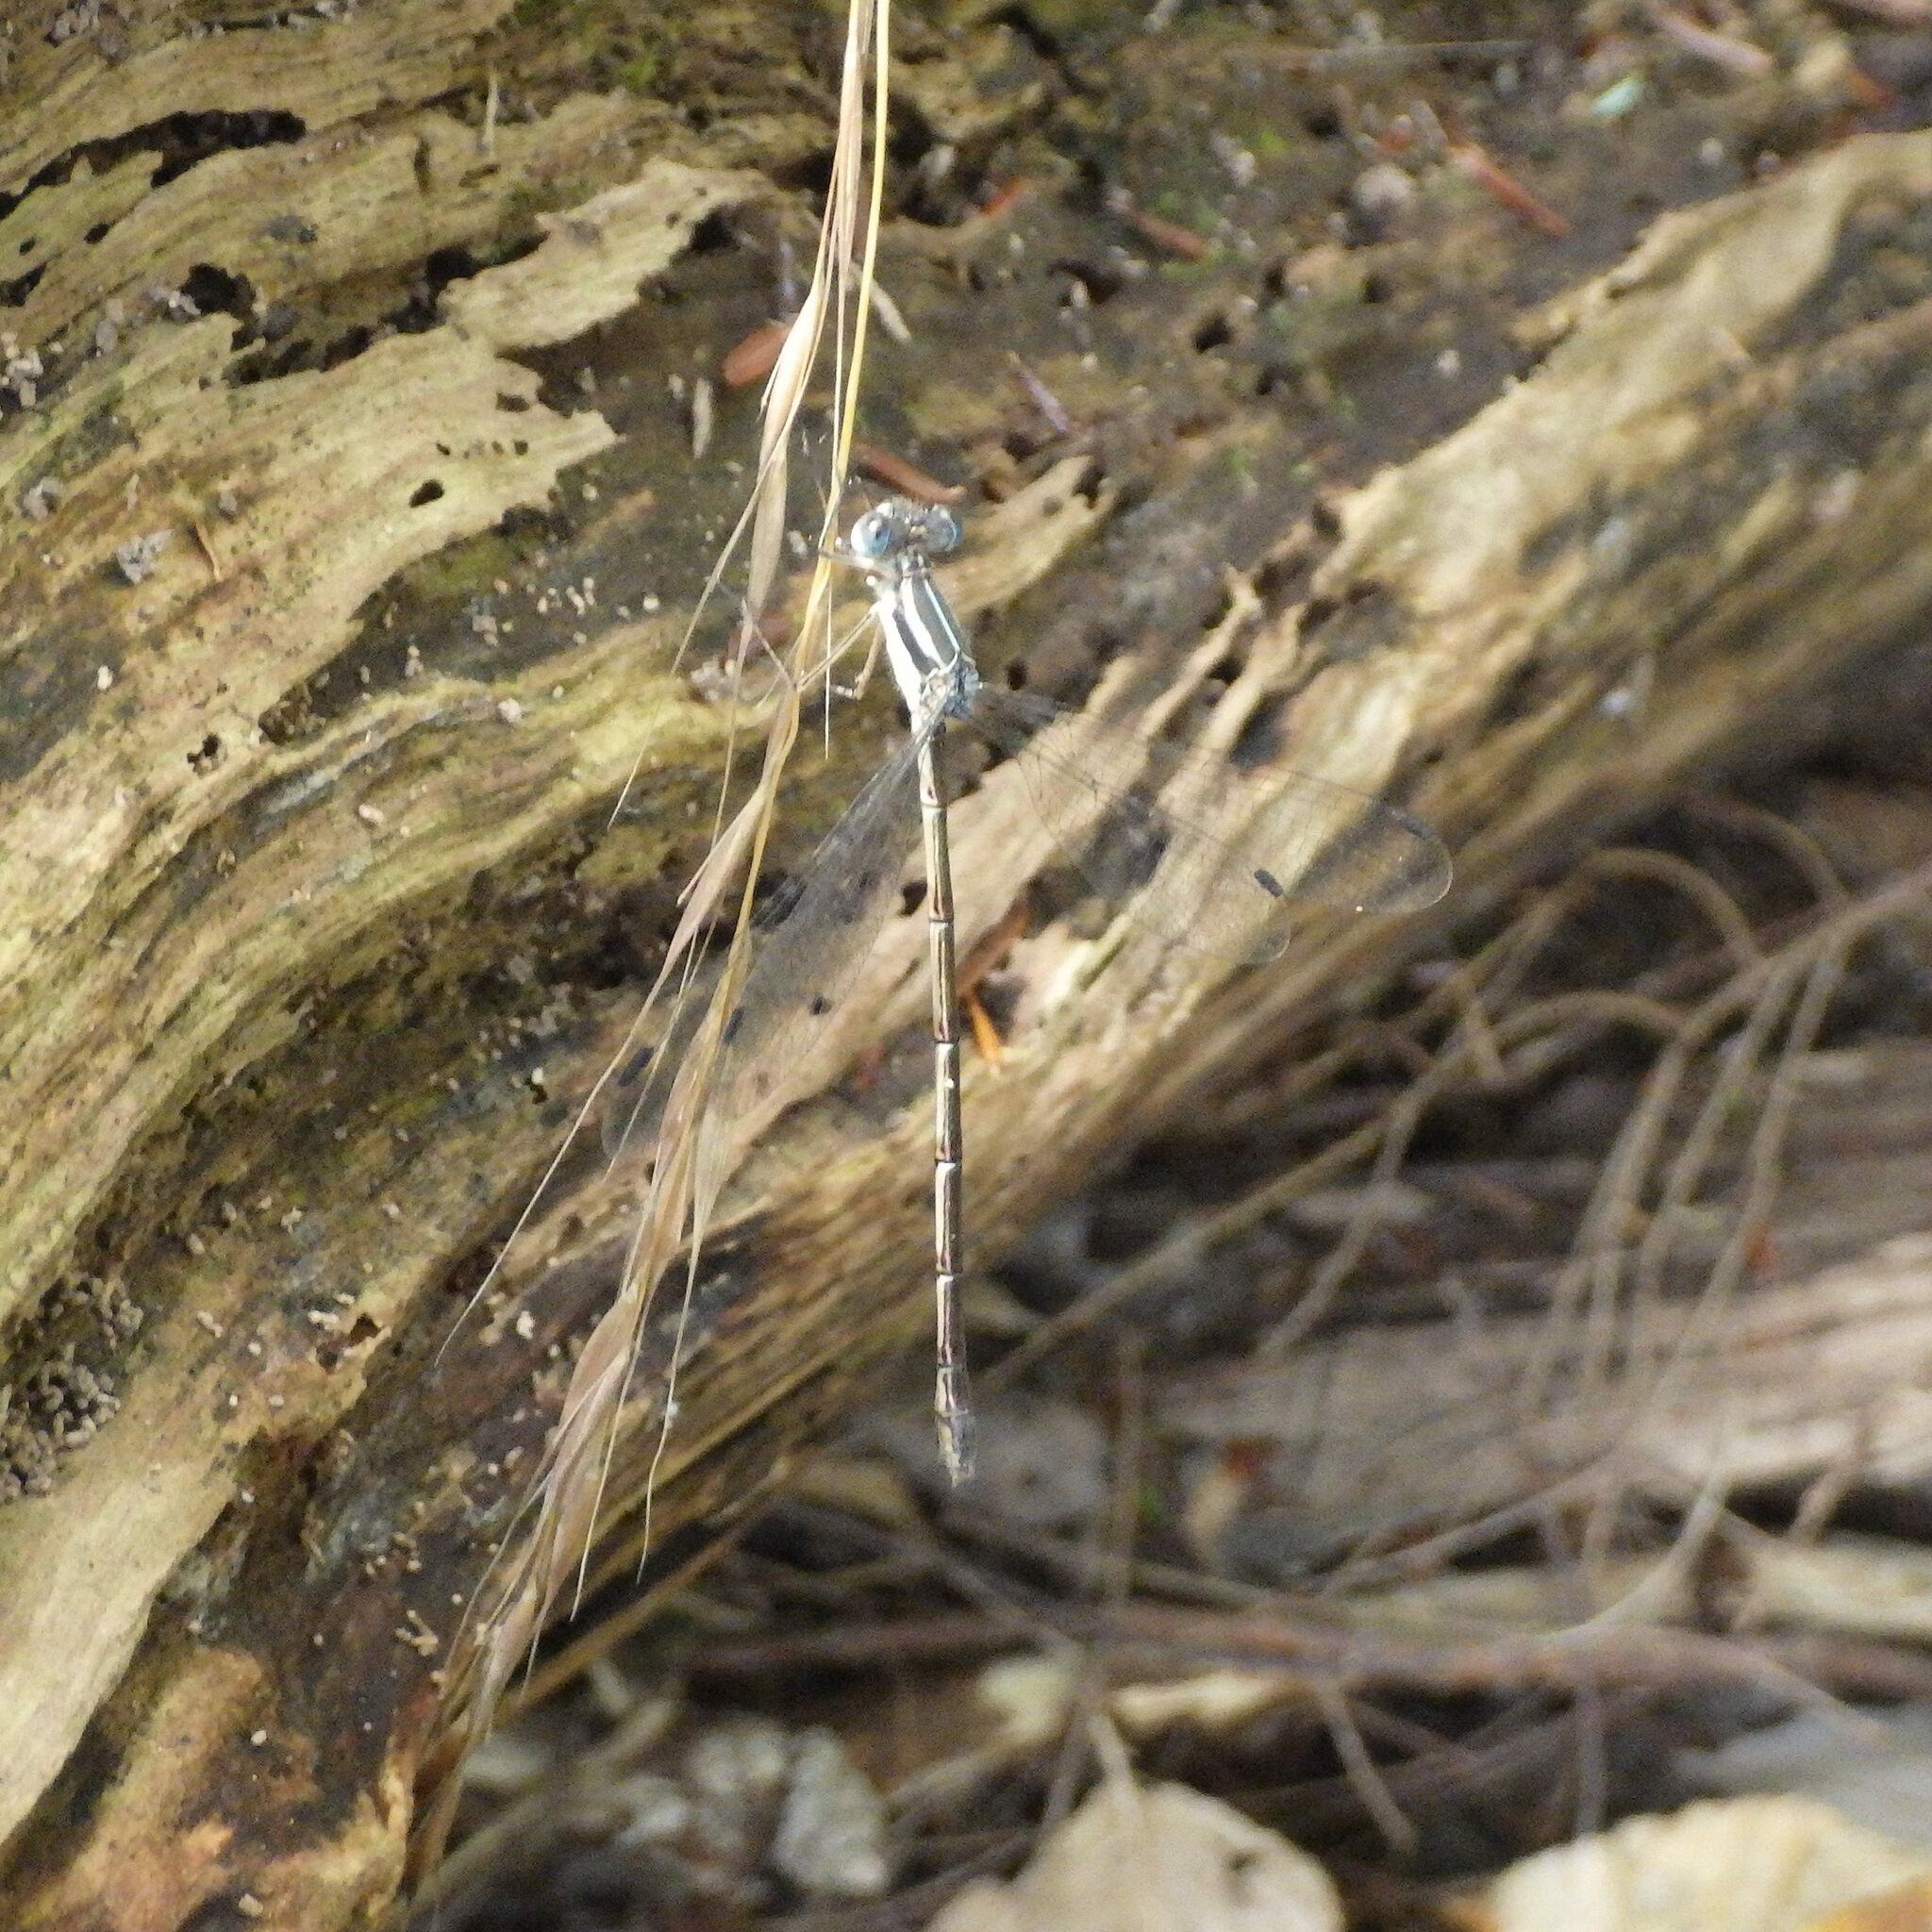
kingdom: Animalia
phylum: Arthropoda
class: Insecta
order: Odonata
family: Lestidae
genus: Lestes
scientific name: Lestes rectangularis
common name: Slender spreadwing
